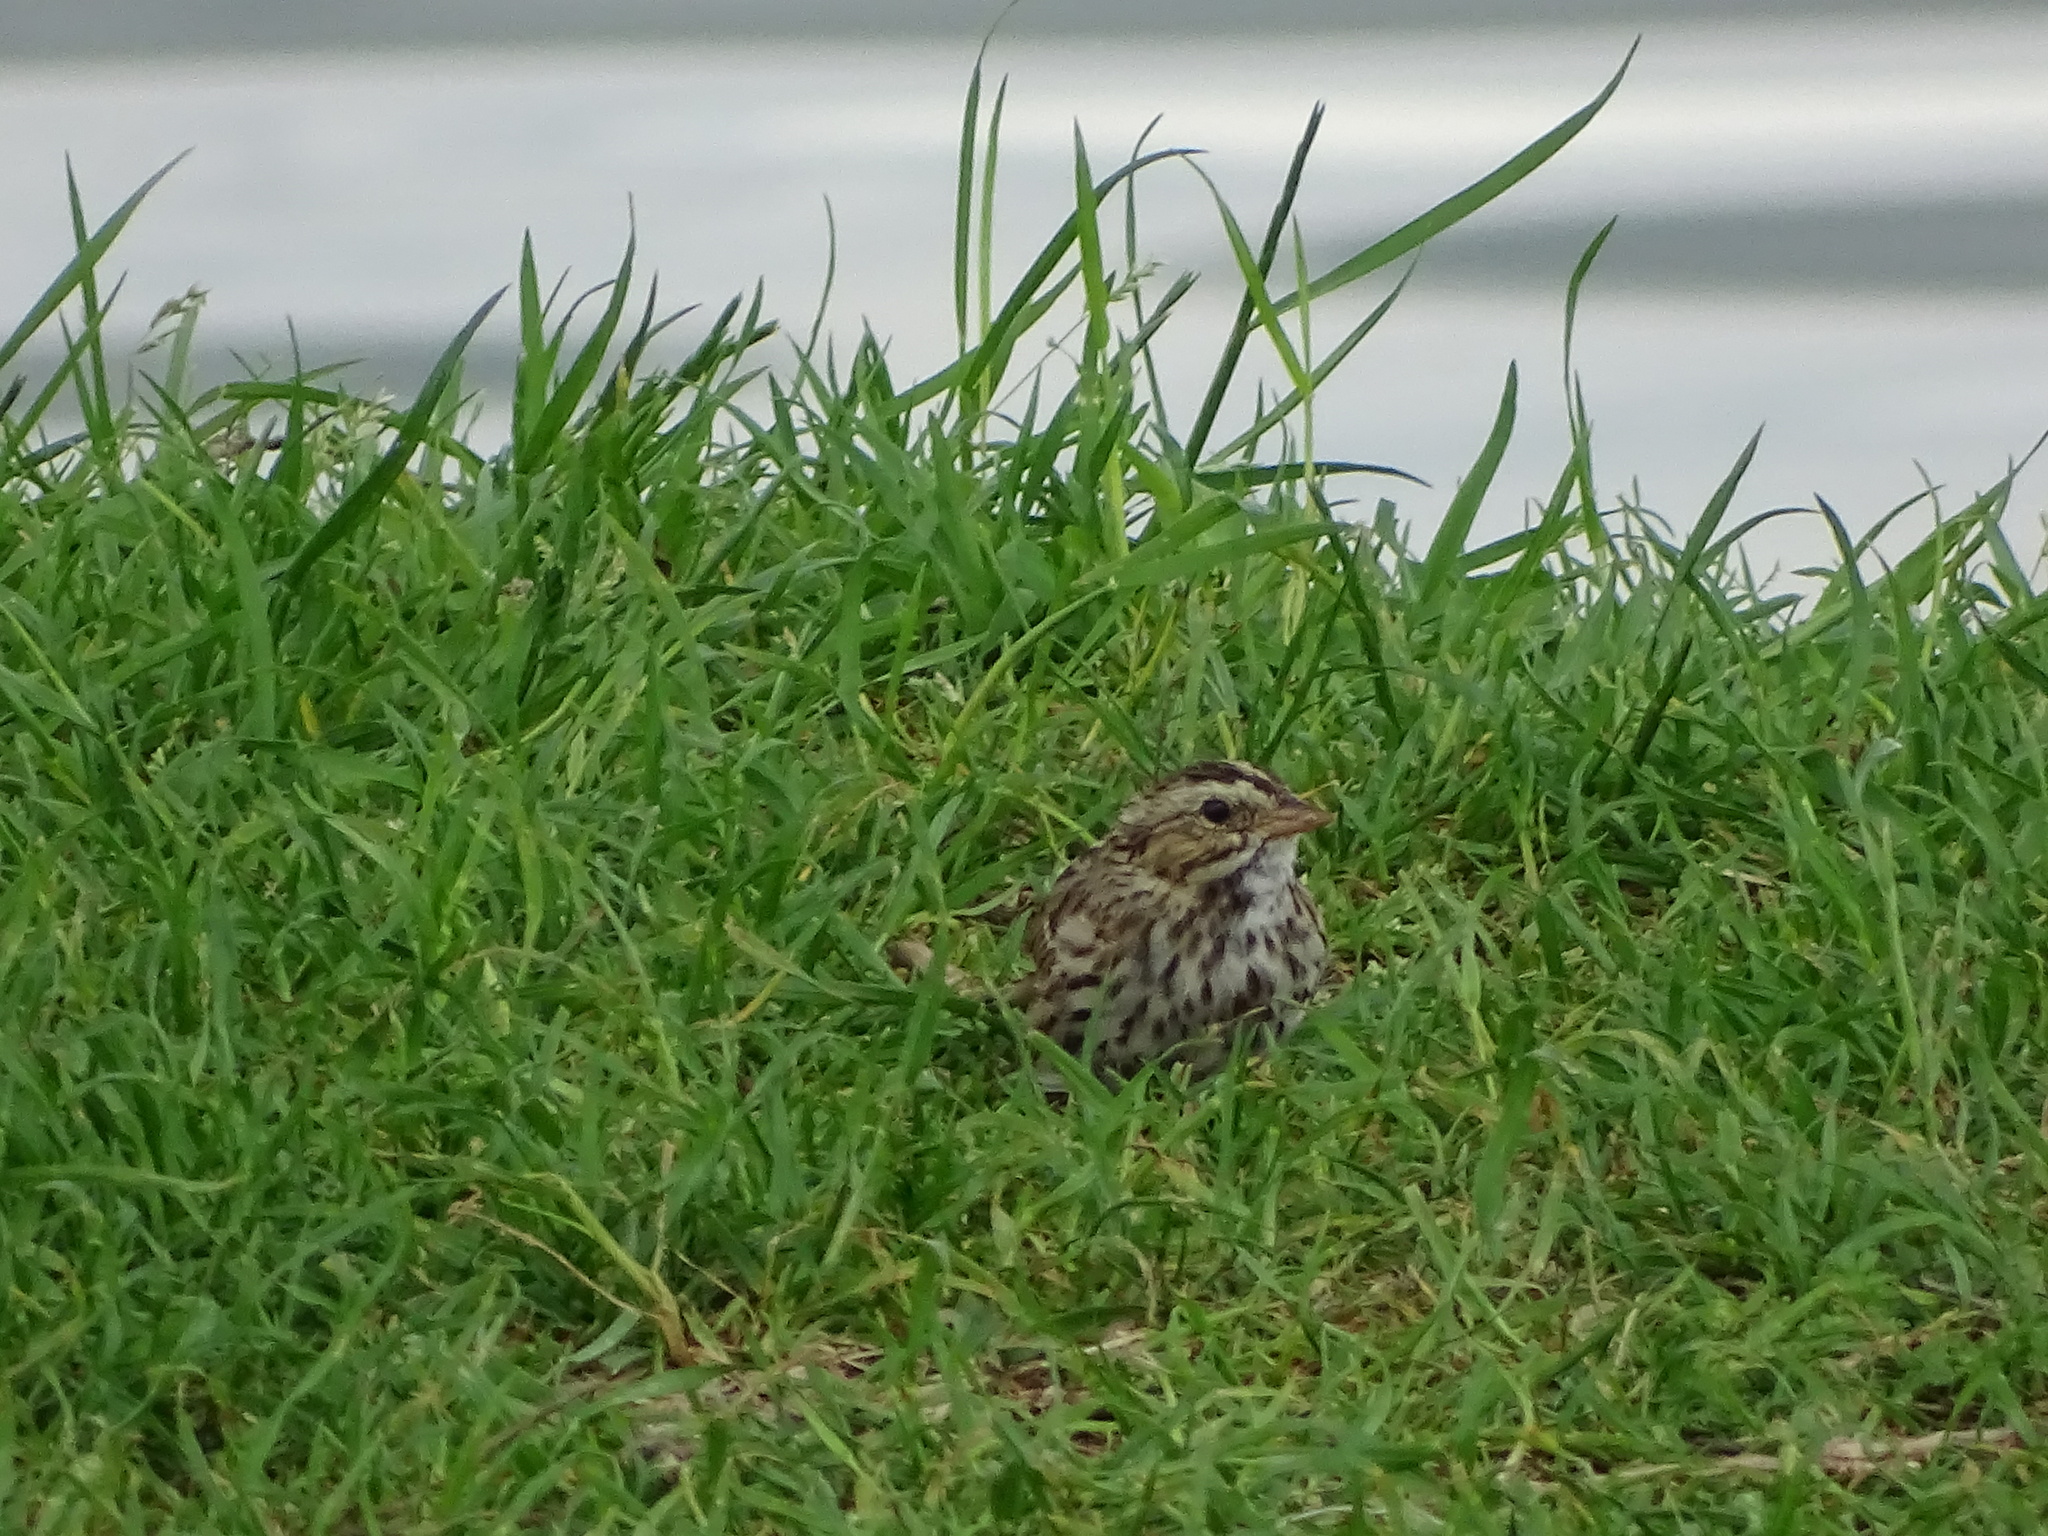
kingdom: Animalia
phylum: Chordata
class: Aves
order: Passeriformes
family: Passerellidae
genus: Passerculus
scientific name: Passerculus sandwichensis
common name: Savannah sparrow
